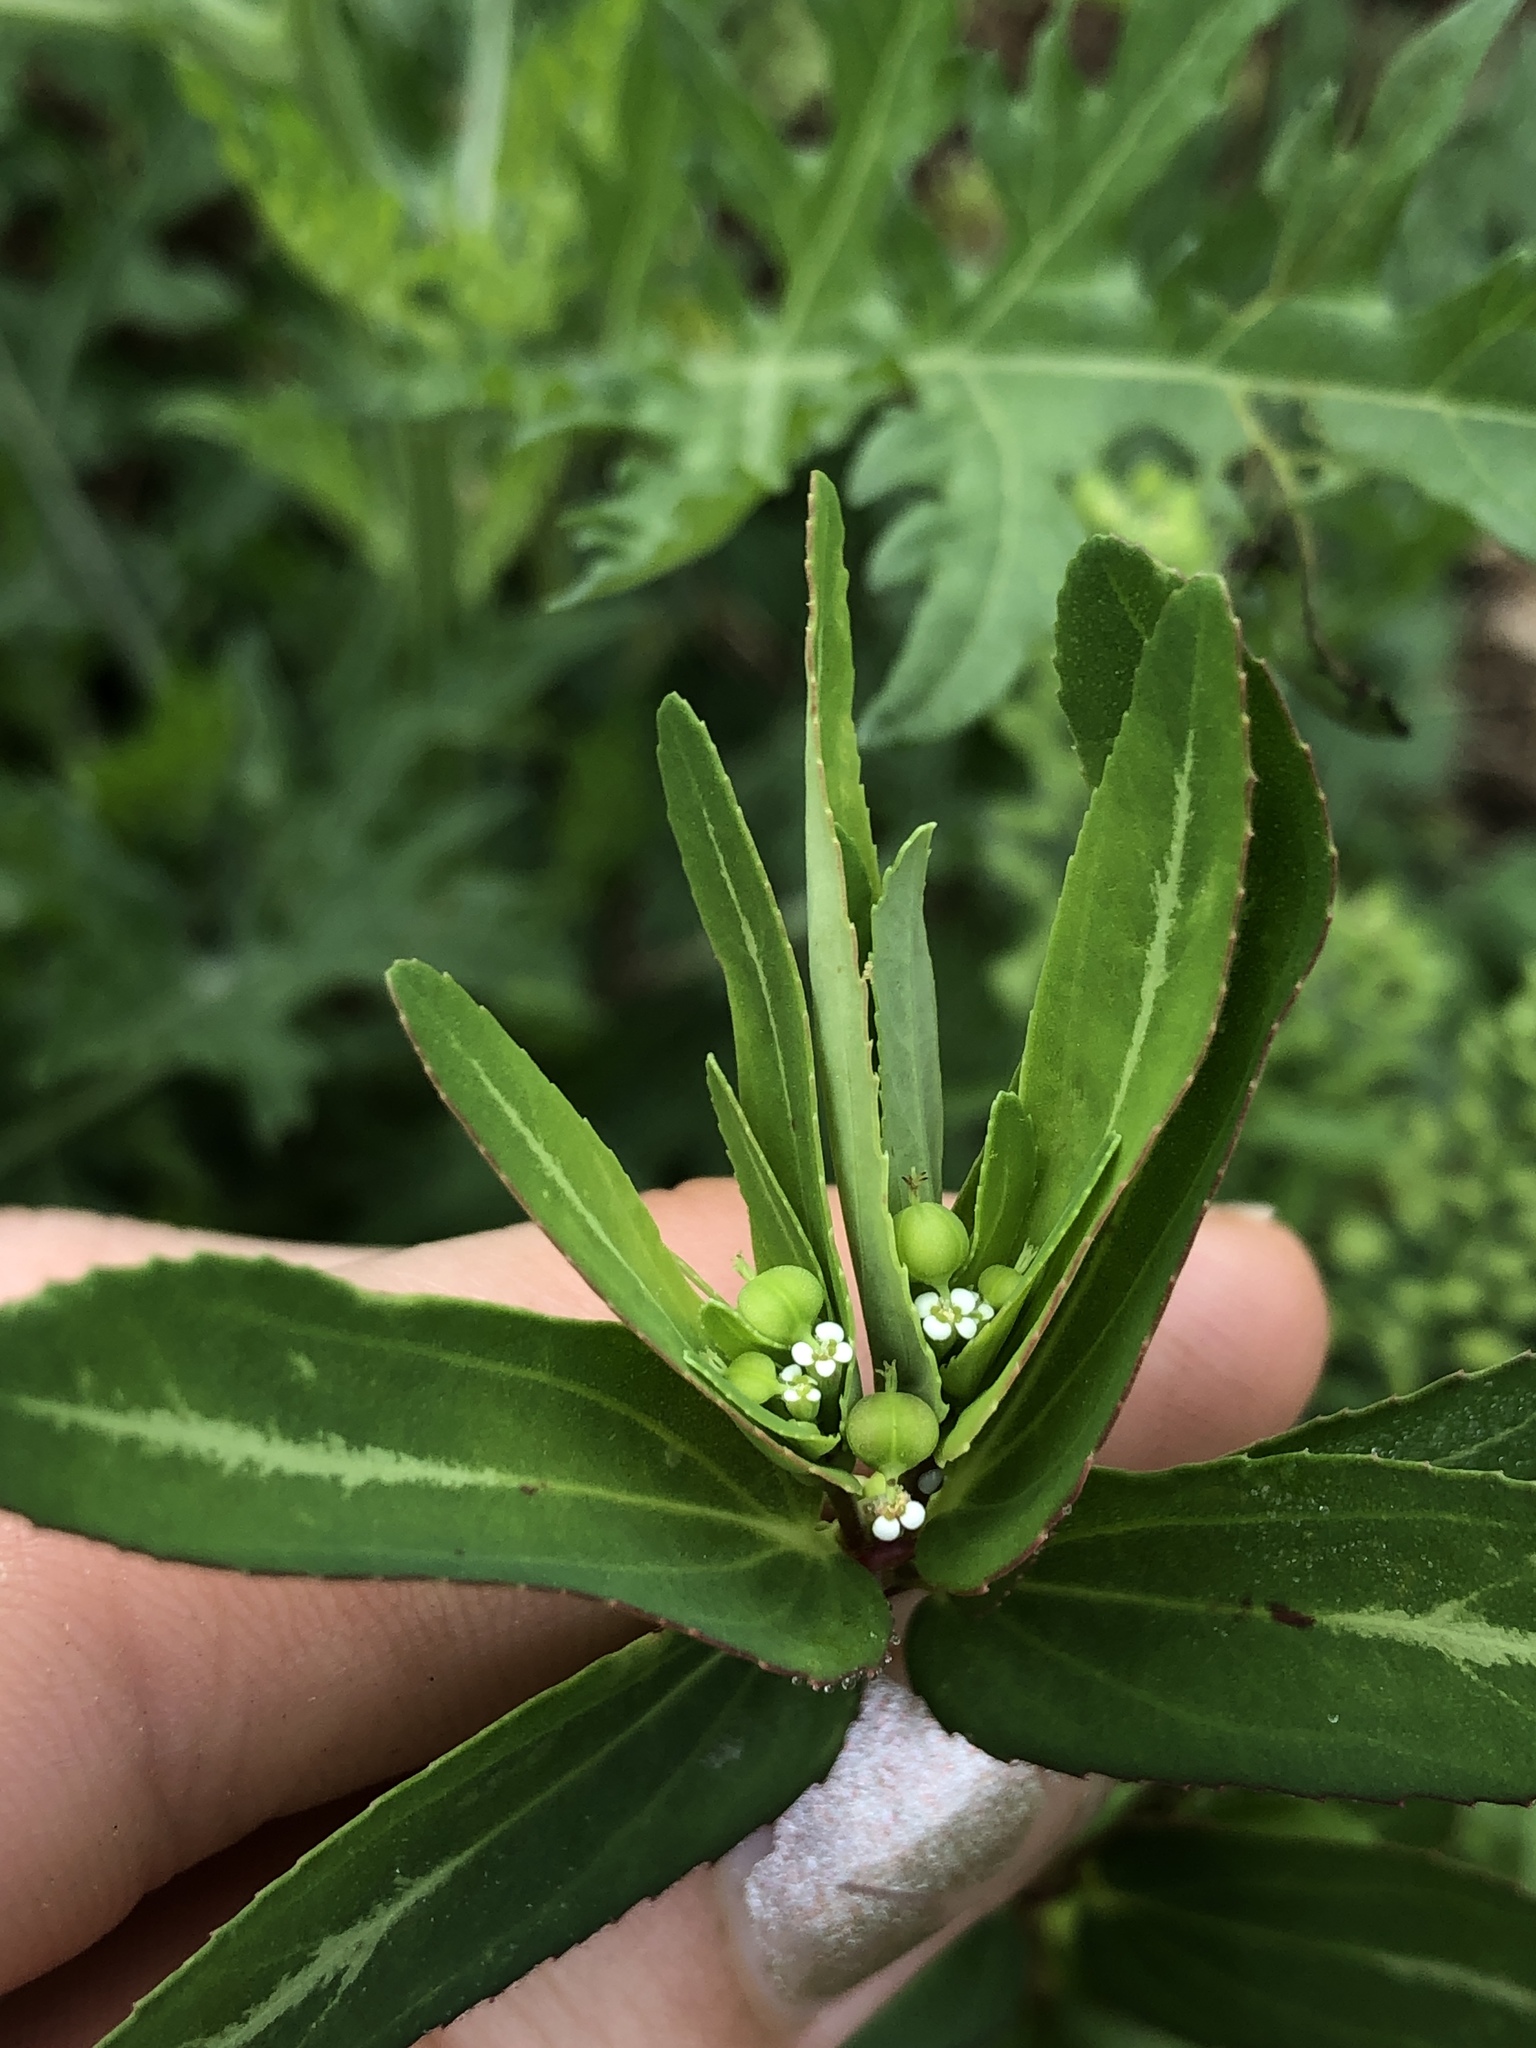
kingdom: Plantae
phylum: Tracheophyta
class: Magnoliopsida
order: Malpighiales
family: Euphorbiaceae
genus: Euphorbia
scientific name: Euphorbia nutans
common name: Eyebane
